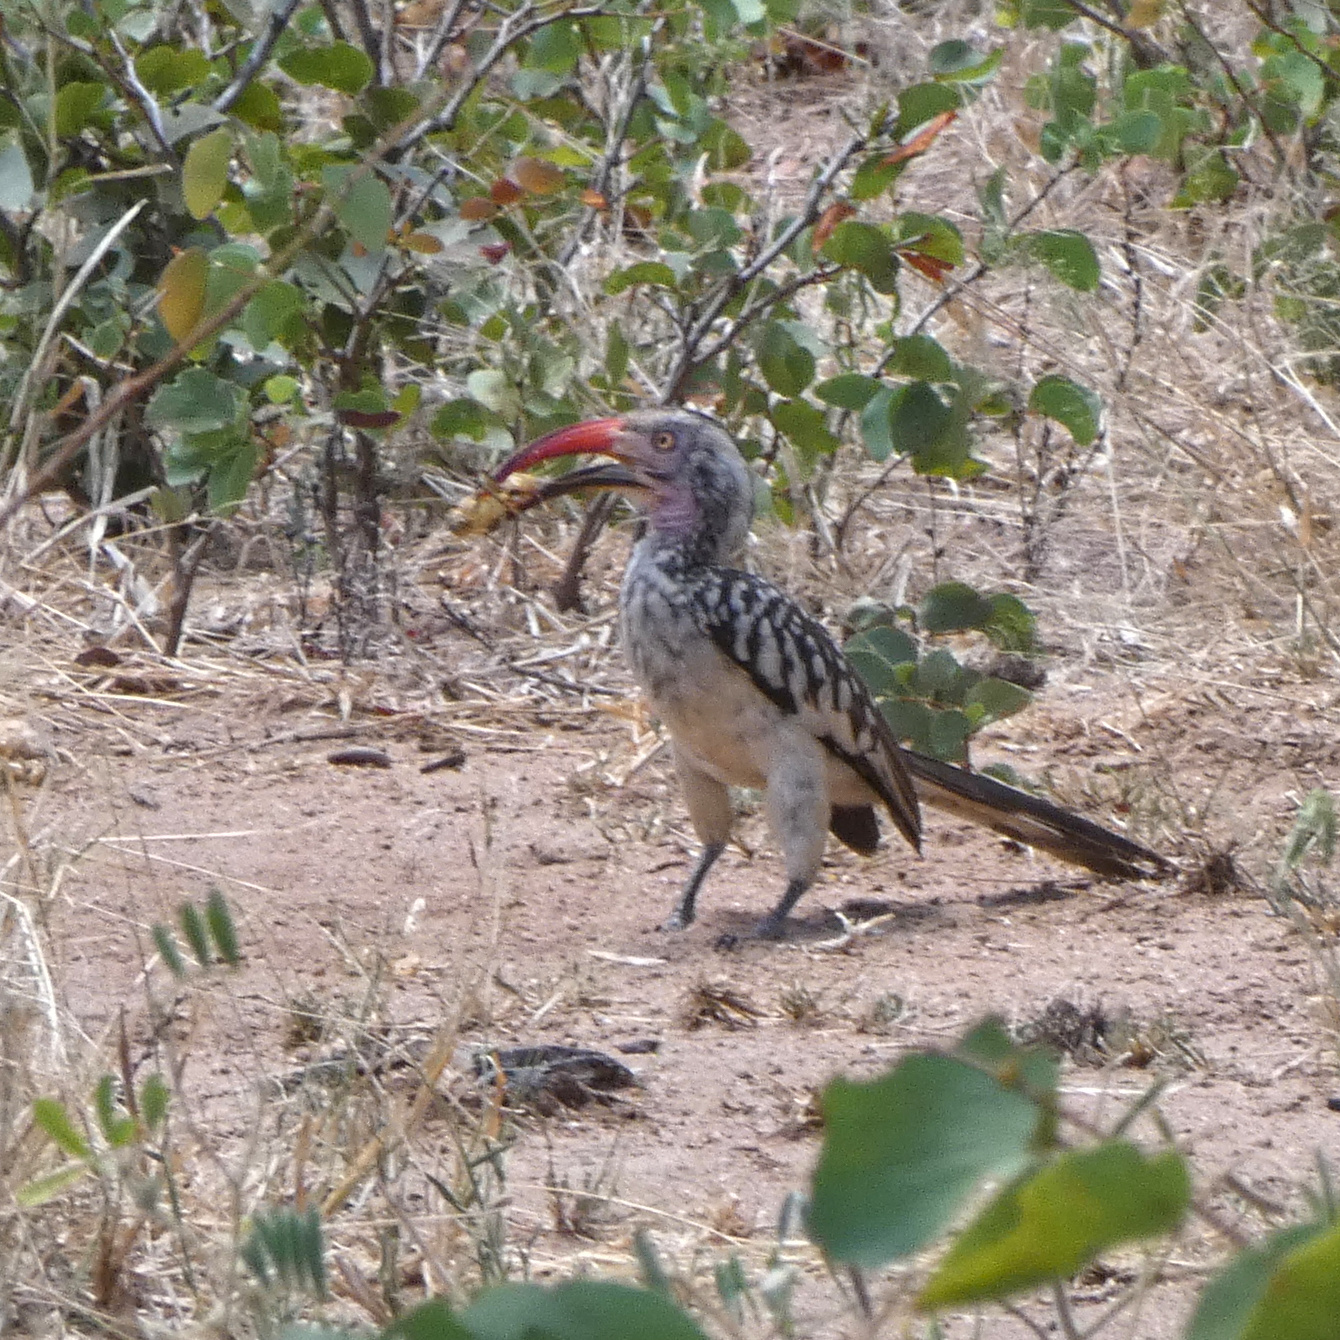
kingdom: Animalia
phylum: Chordata
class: Aves
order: Bucerotiformes
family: Bucerotidae
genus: Tockus
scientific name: Tockus rufirostris
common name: Southern red-billed hornbill
